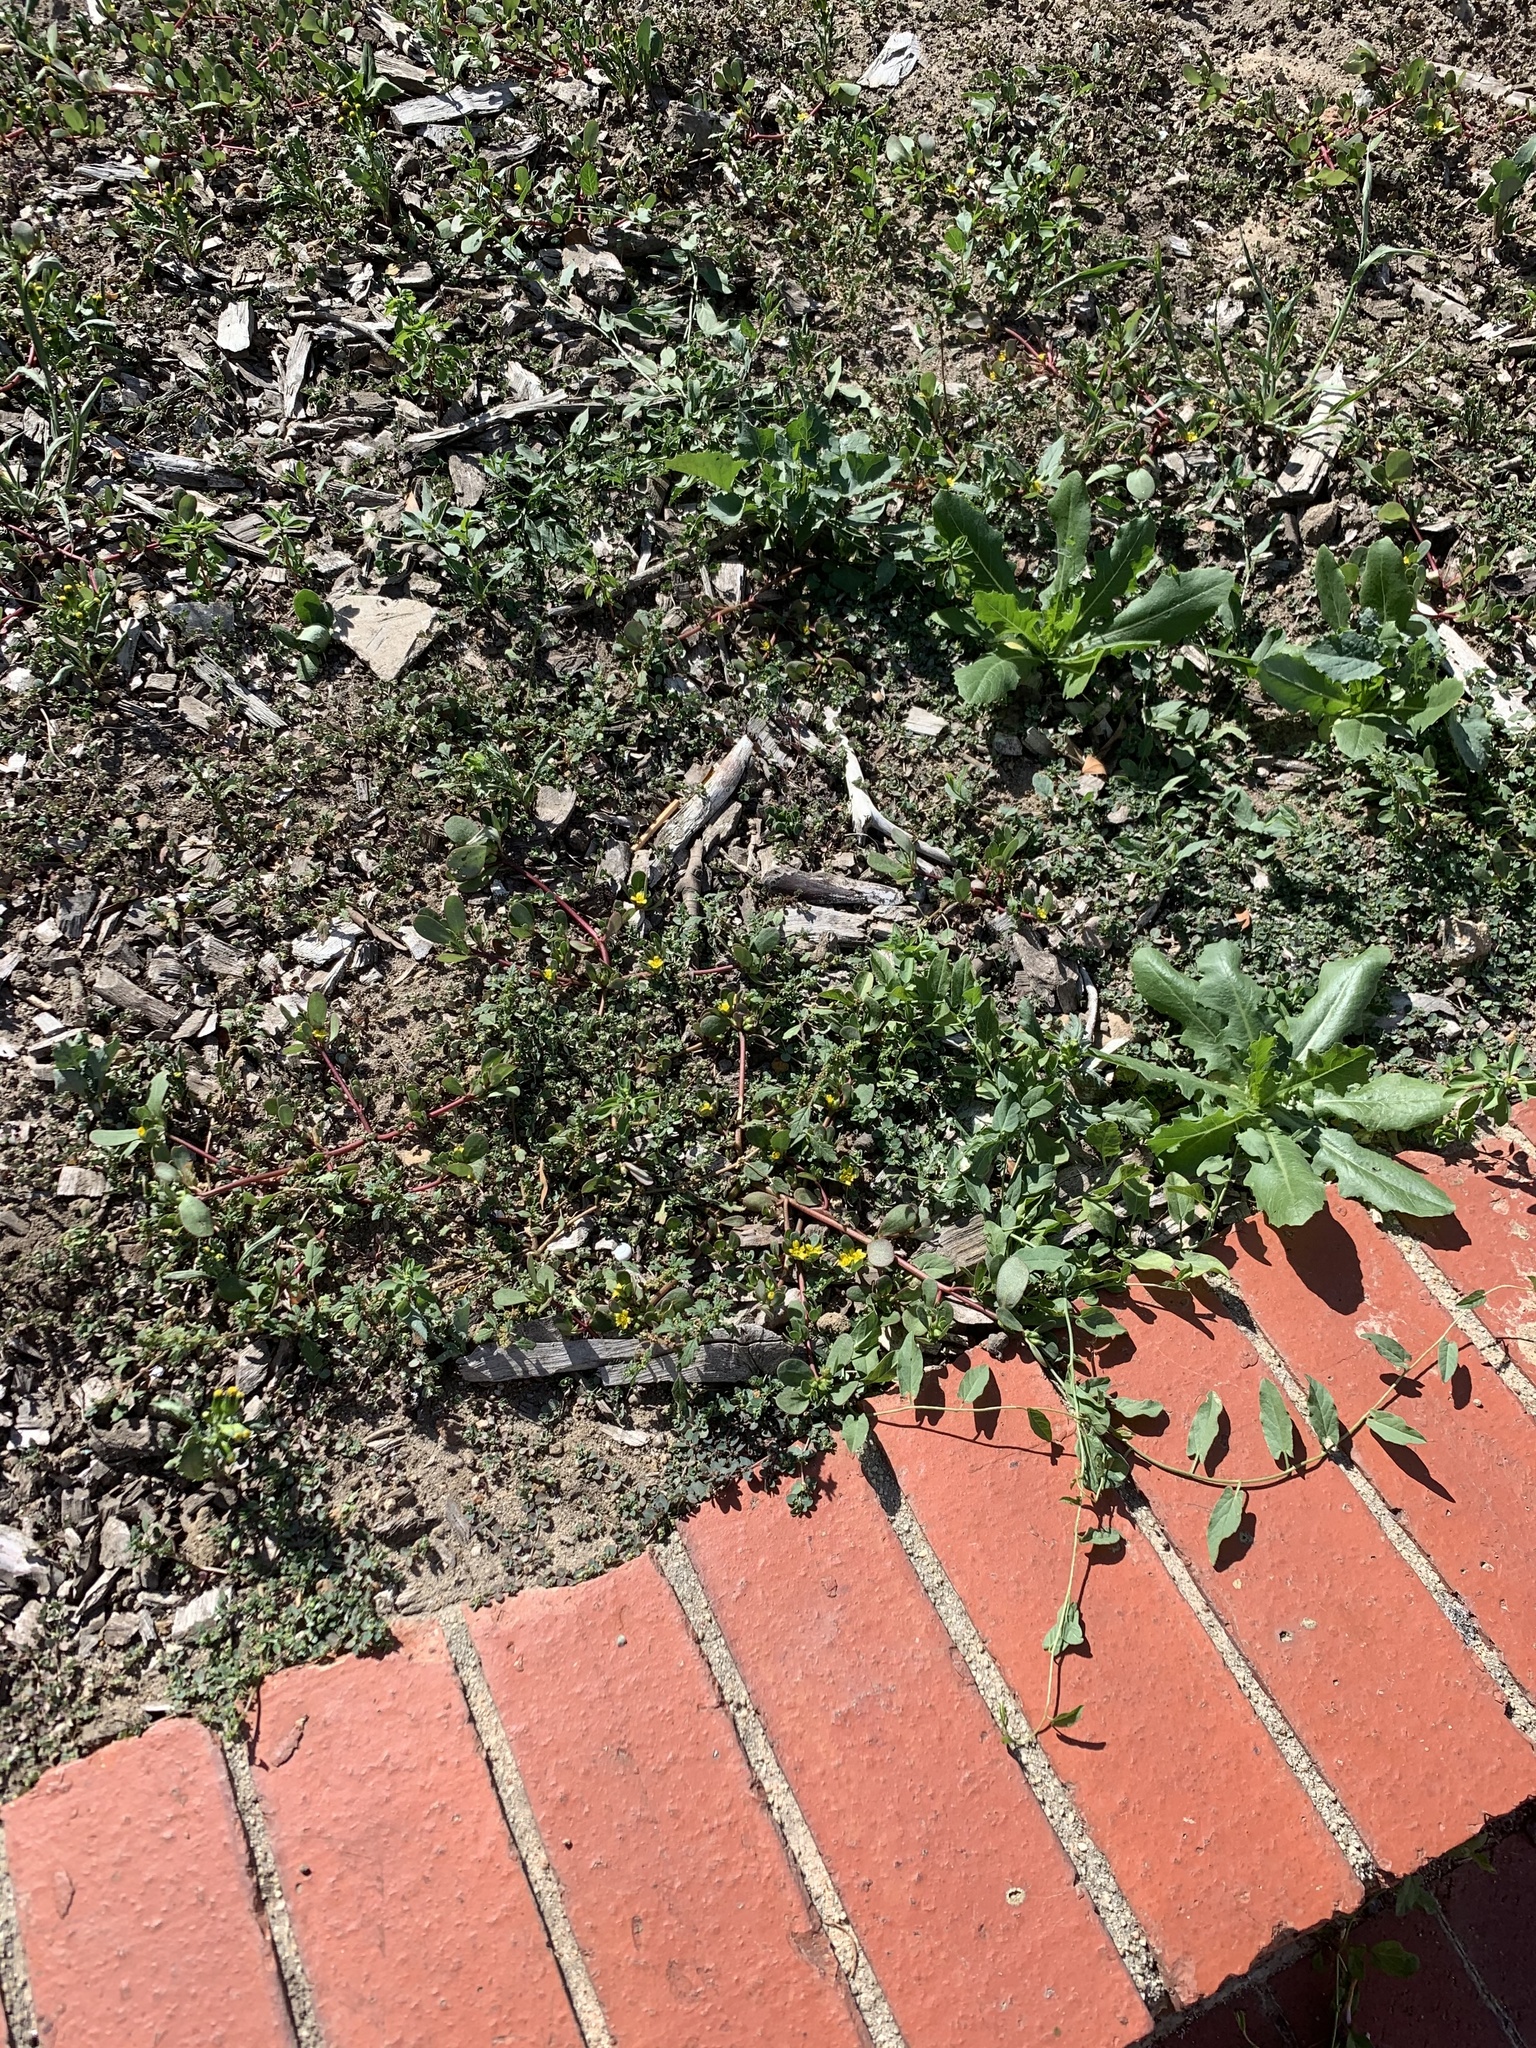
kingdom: Plantae
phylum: Tracheophyta
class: Magnoliopsida
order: Caryophyllales
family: Portulacaceae
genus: Portulaca
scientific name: Portulaca oleracea
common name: Common purslane
